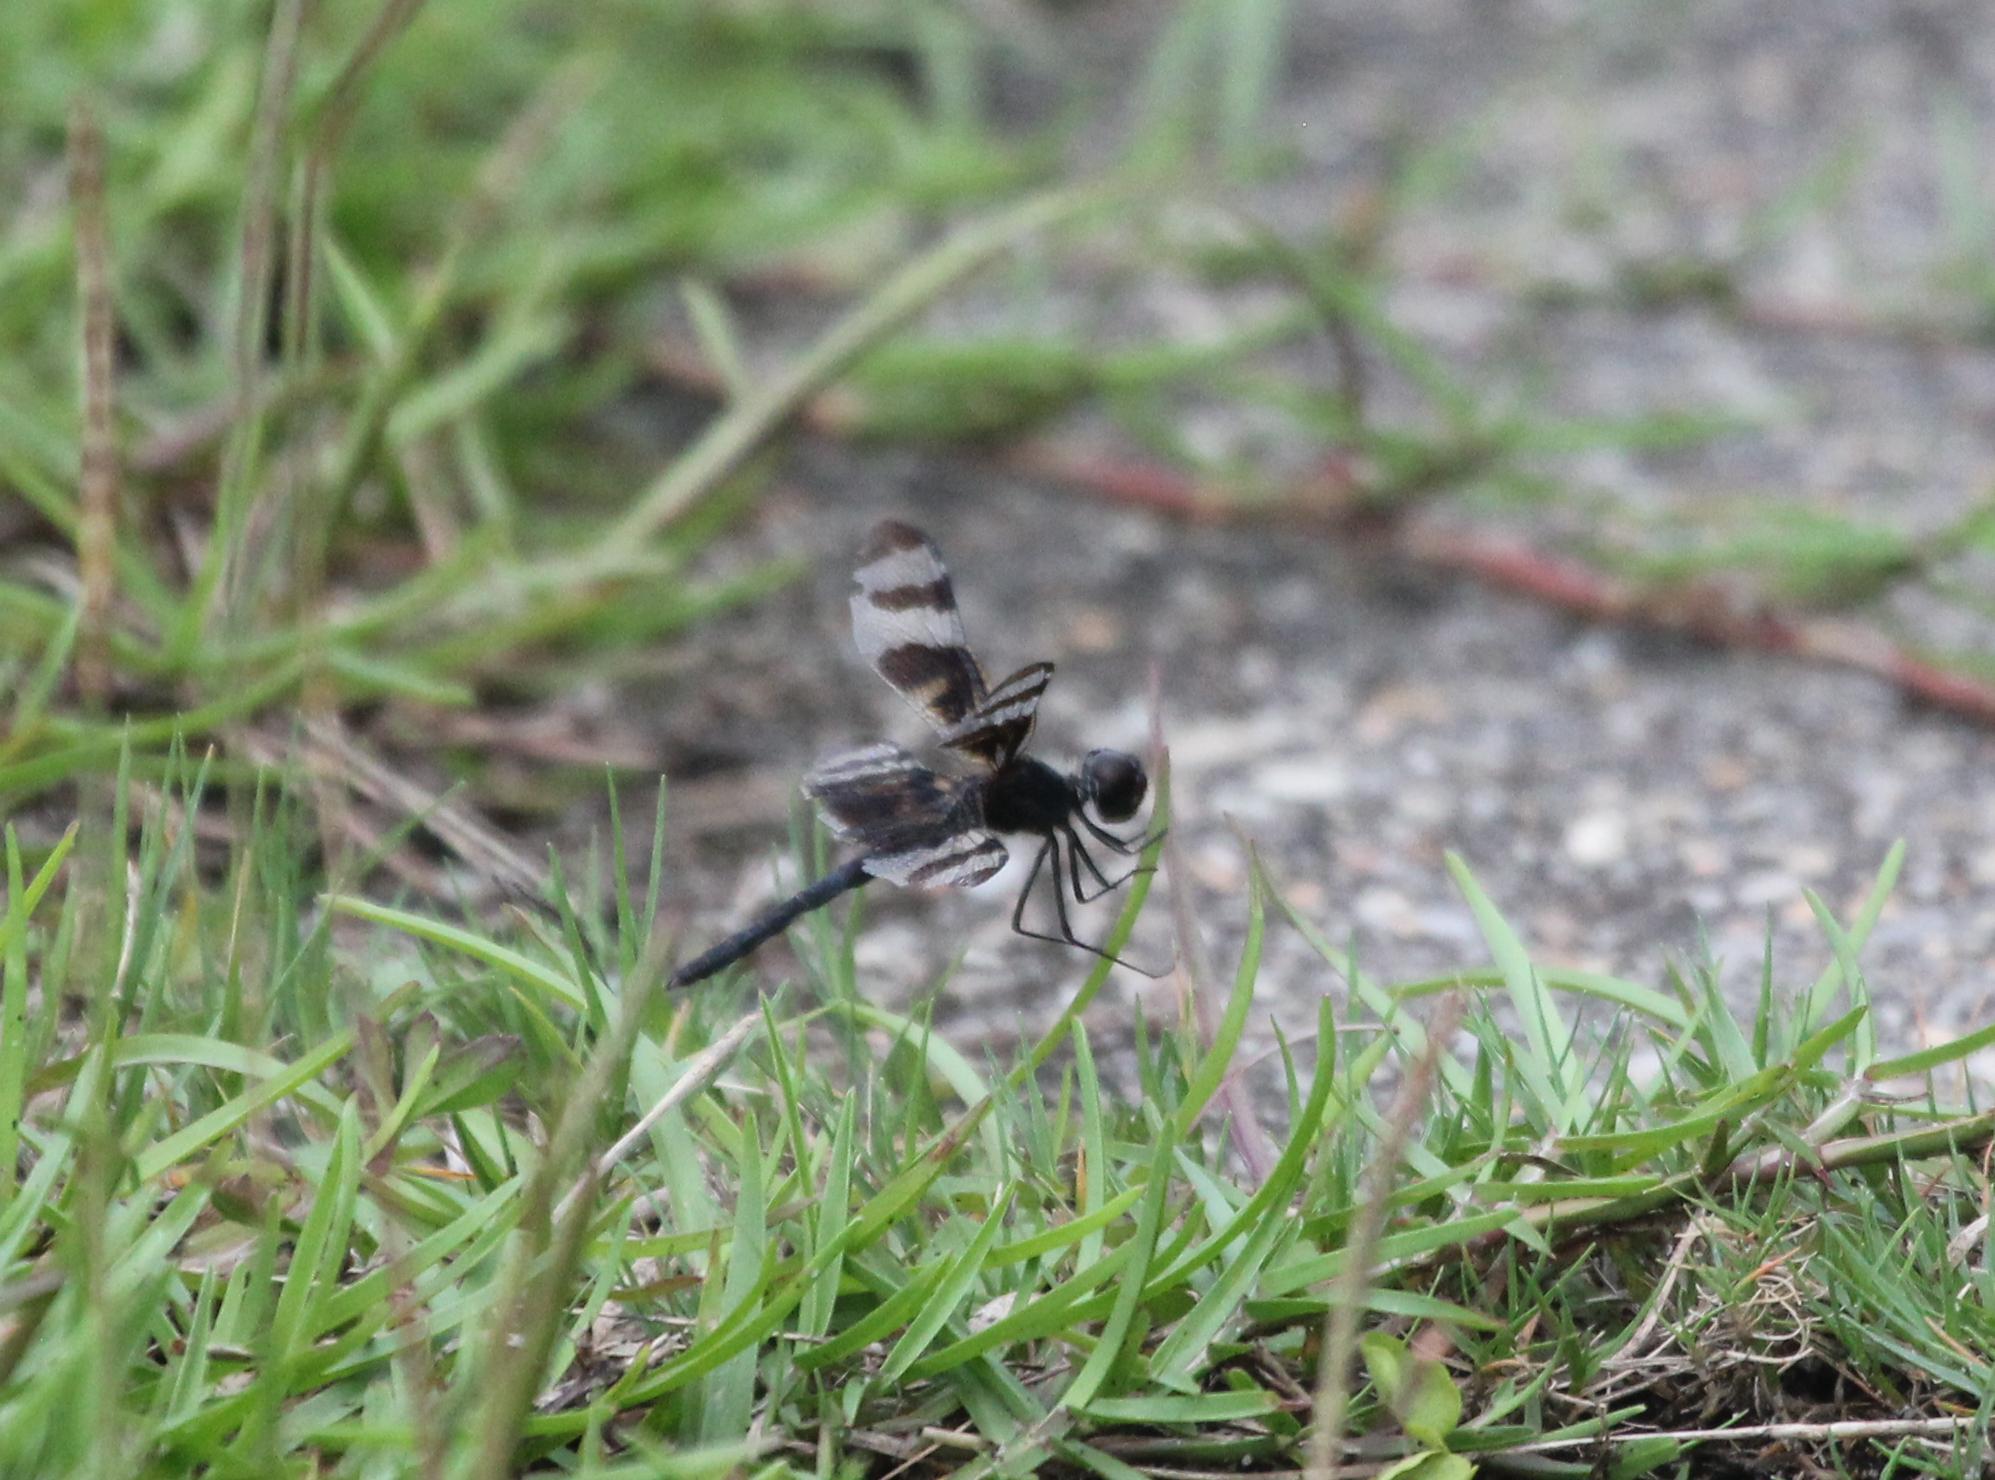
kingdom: Animalia
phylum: Arthropoda
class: Insecta
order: Odonata
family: Libellulidae
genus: Celithemis
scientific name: Celithemis fasciata
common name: Banded pennant
